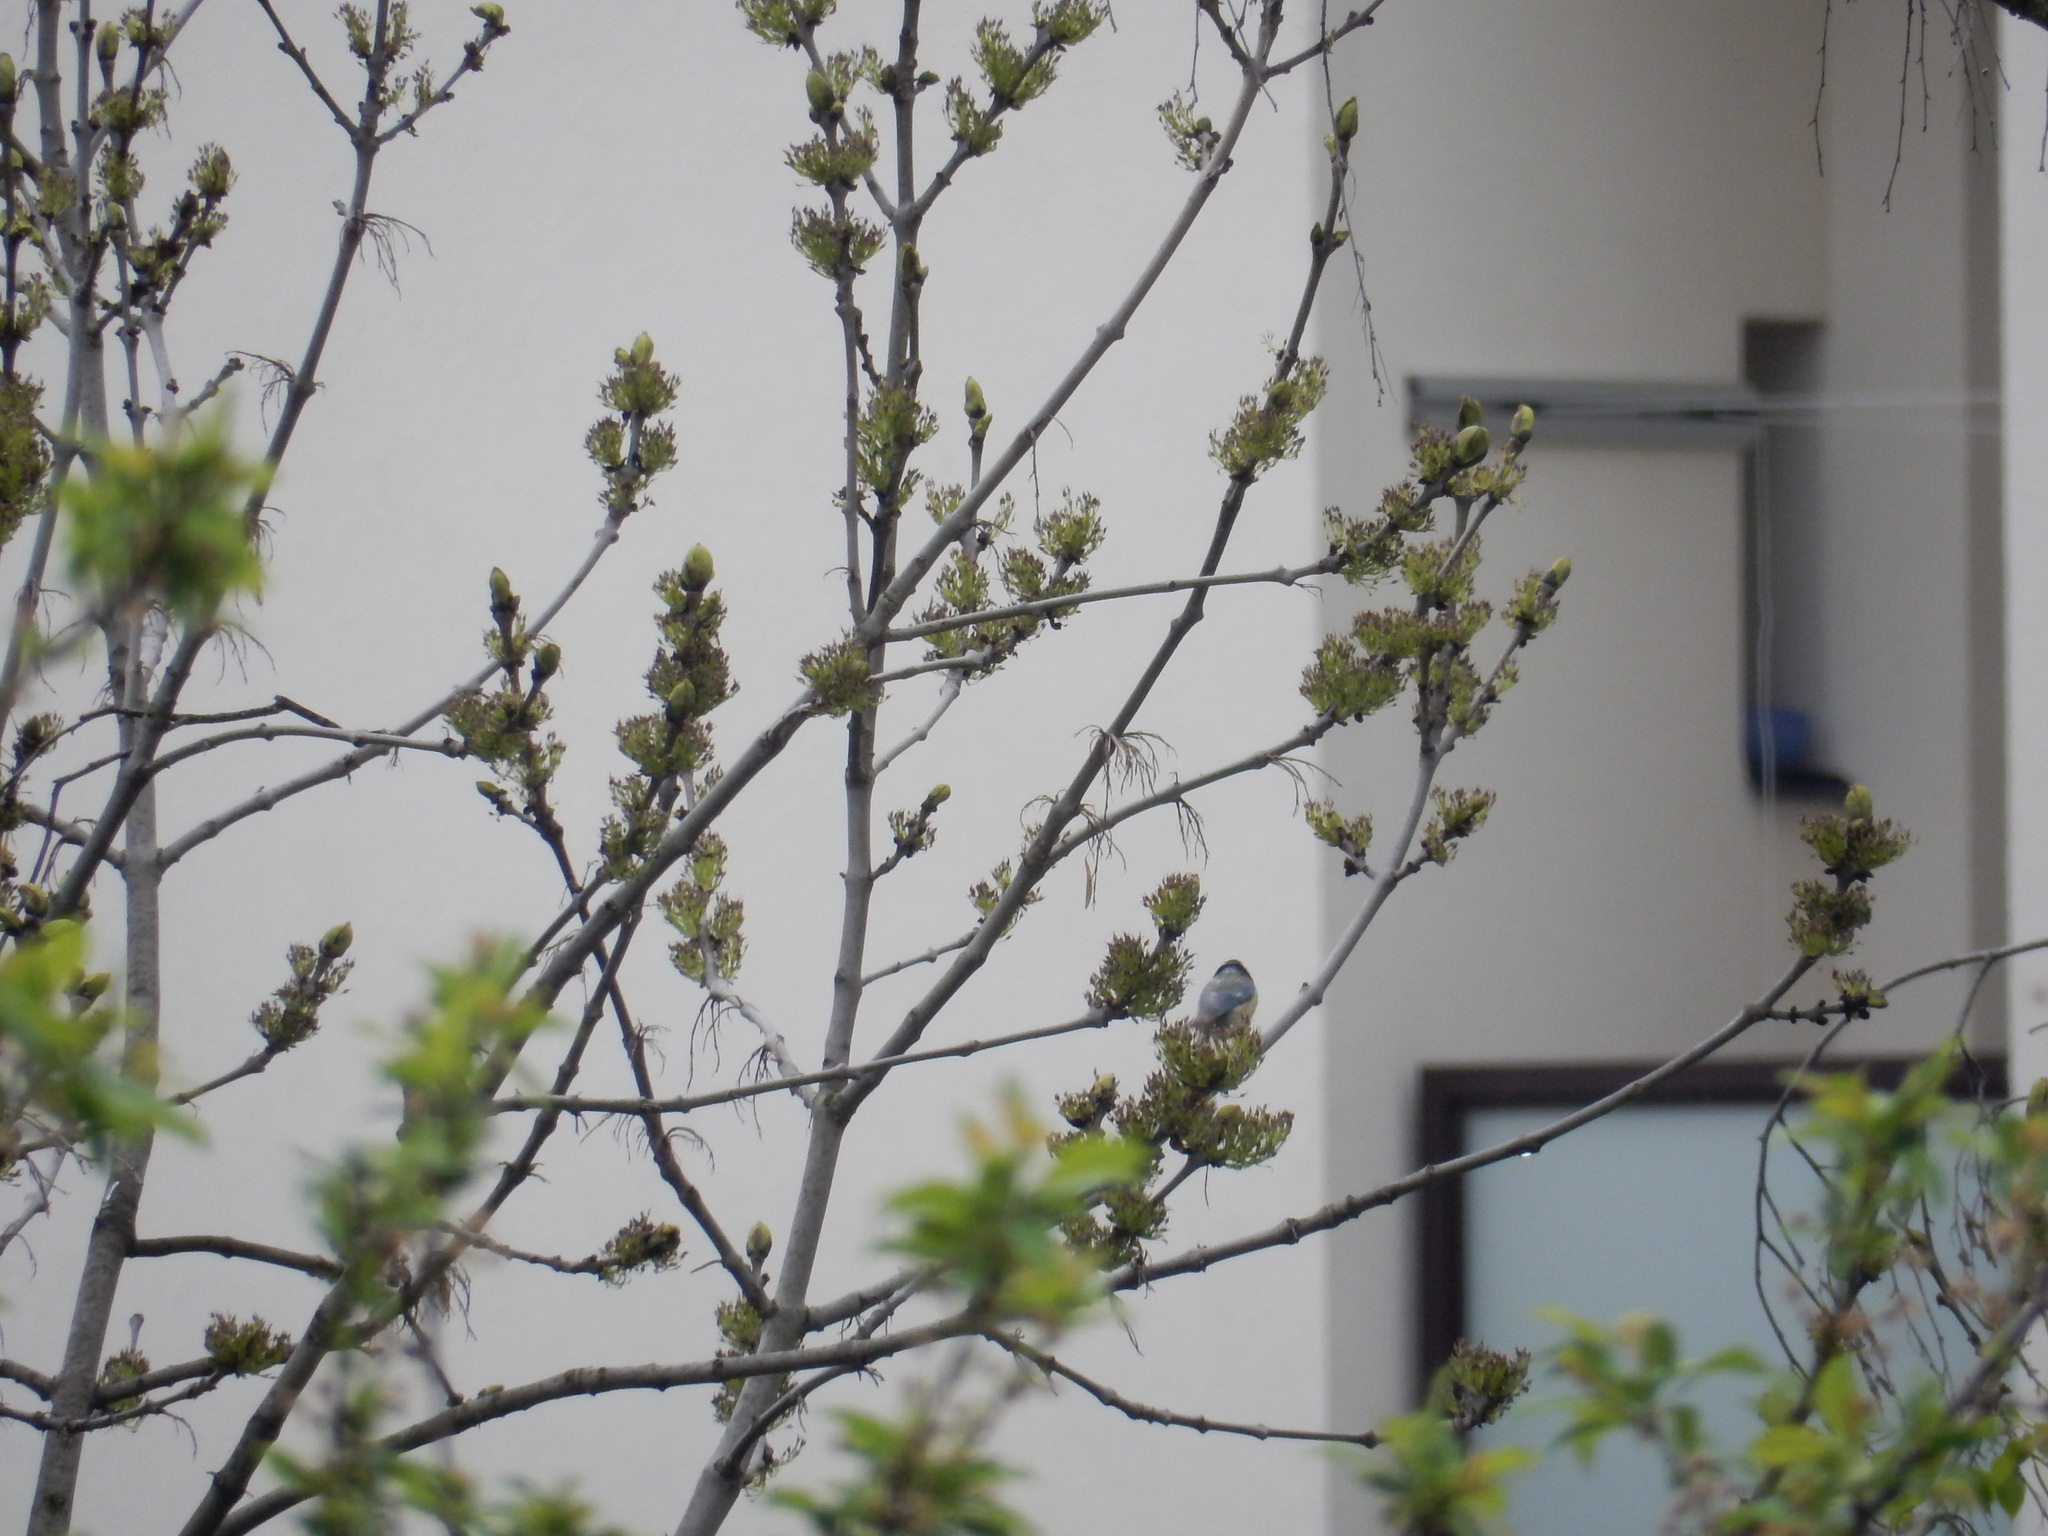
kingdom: Animalia
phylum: Chordata
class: Aves
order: Passeriformes
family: Paridae
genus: Cyanistes
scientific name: Cyanistes caeruleus
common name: Eurasian blue tit
